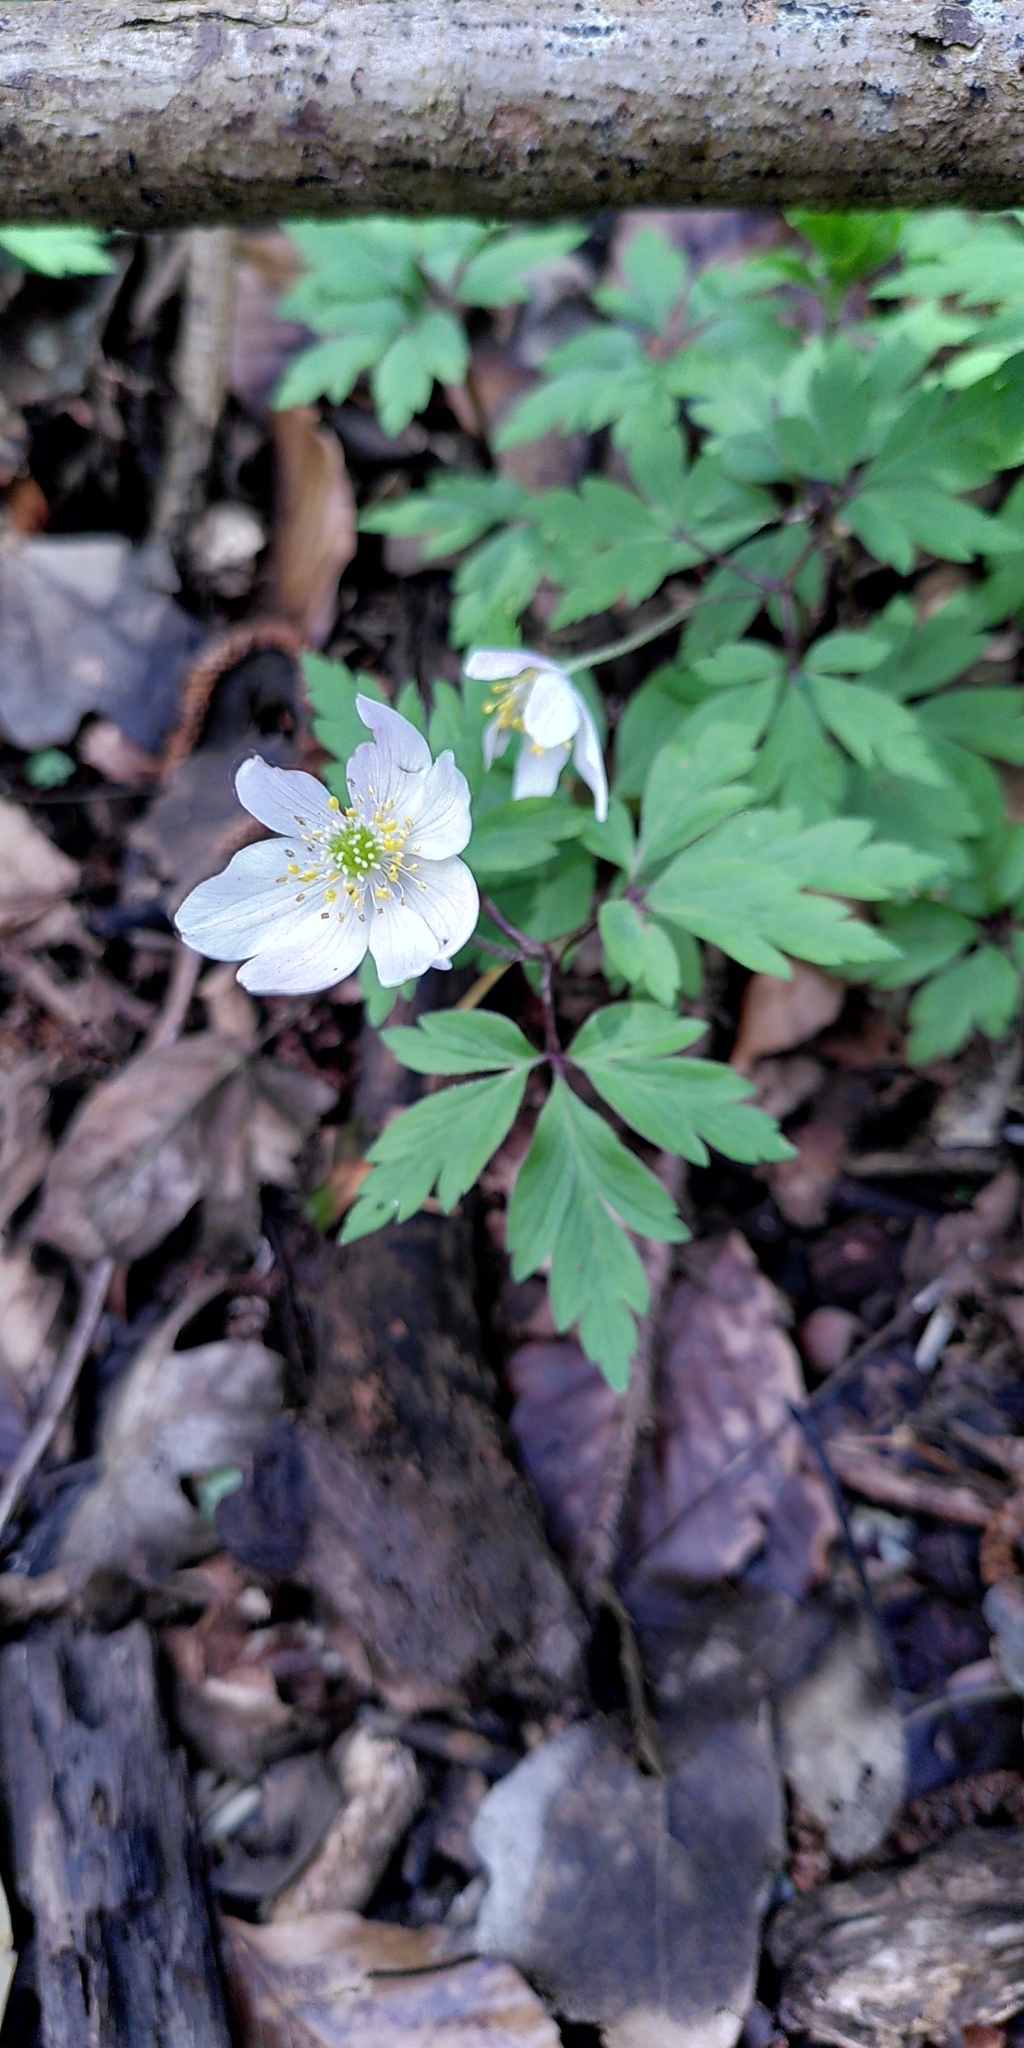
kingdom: Plantae
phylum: Tracheophyta
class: Magnoliopsida
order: Ranunculales
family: Ranunculaceae
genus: Anemone
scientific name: Anemone nemorosa
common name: Wood anemone
